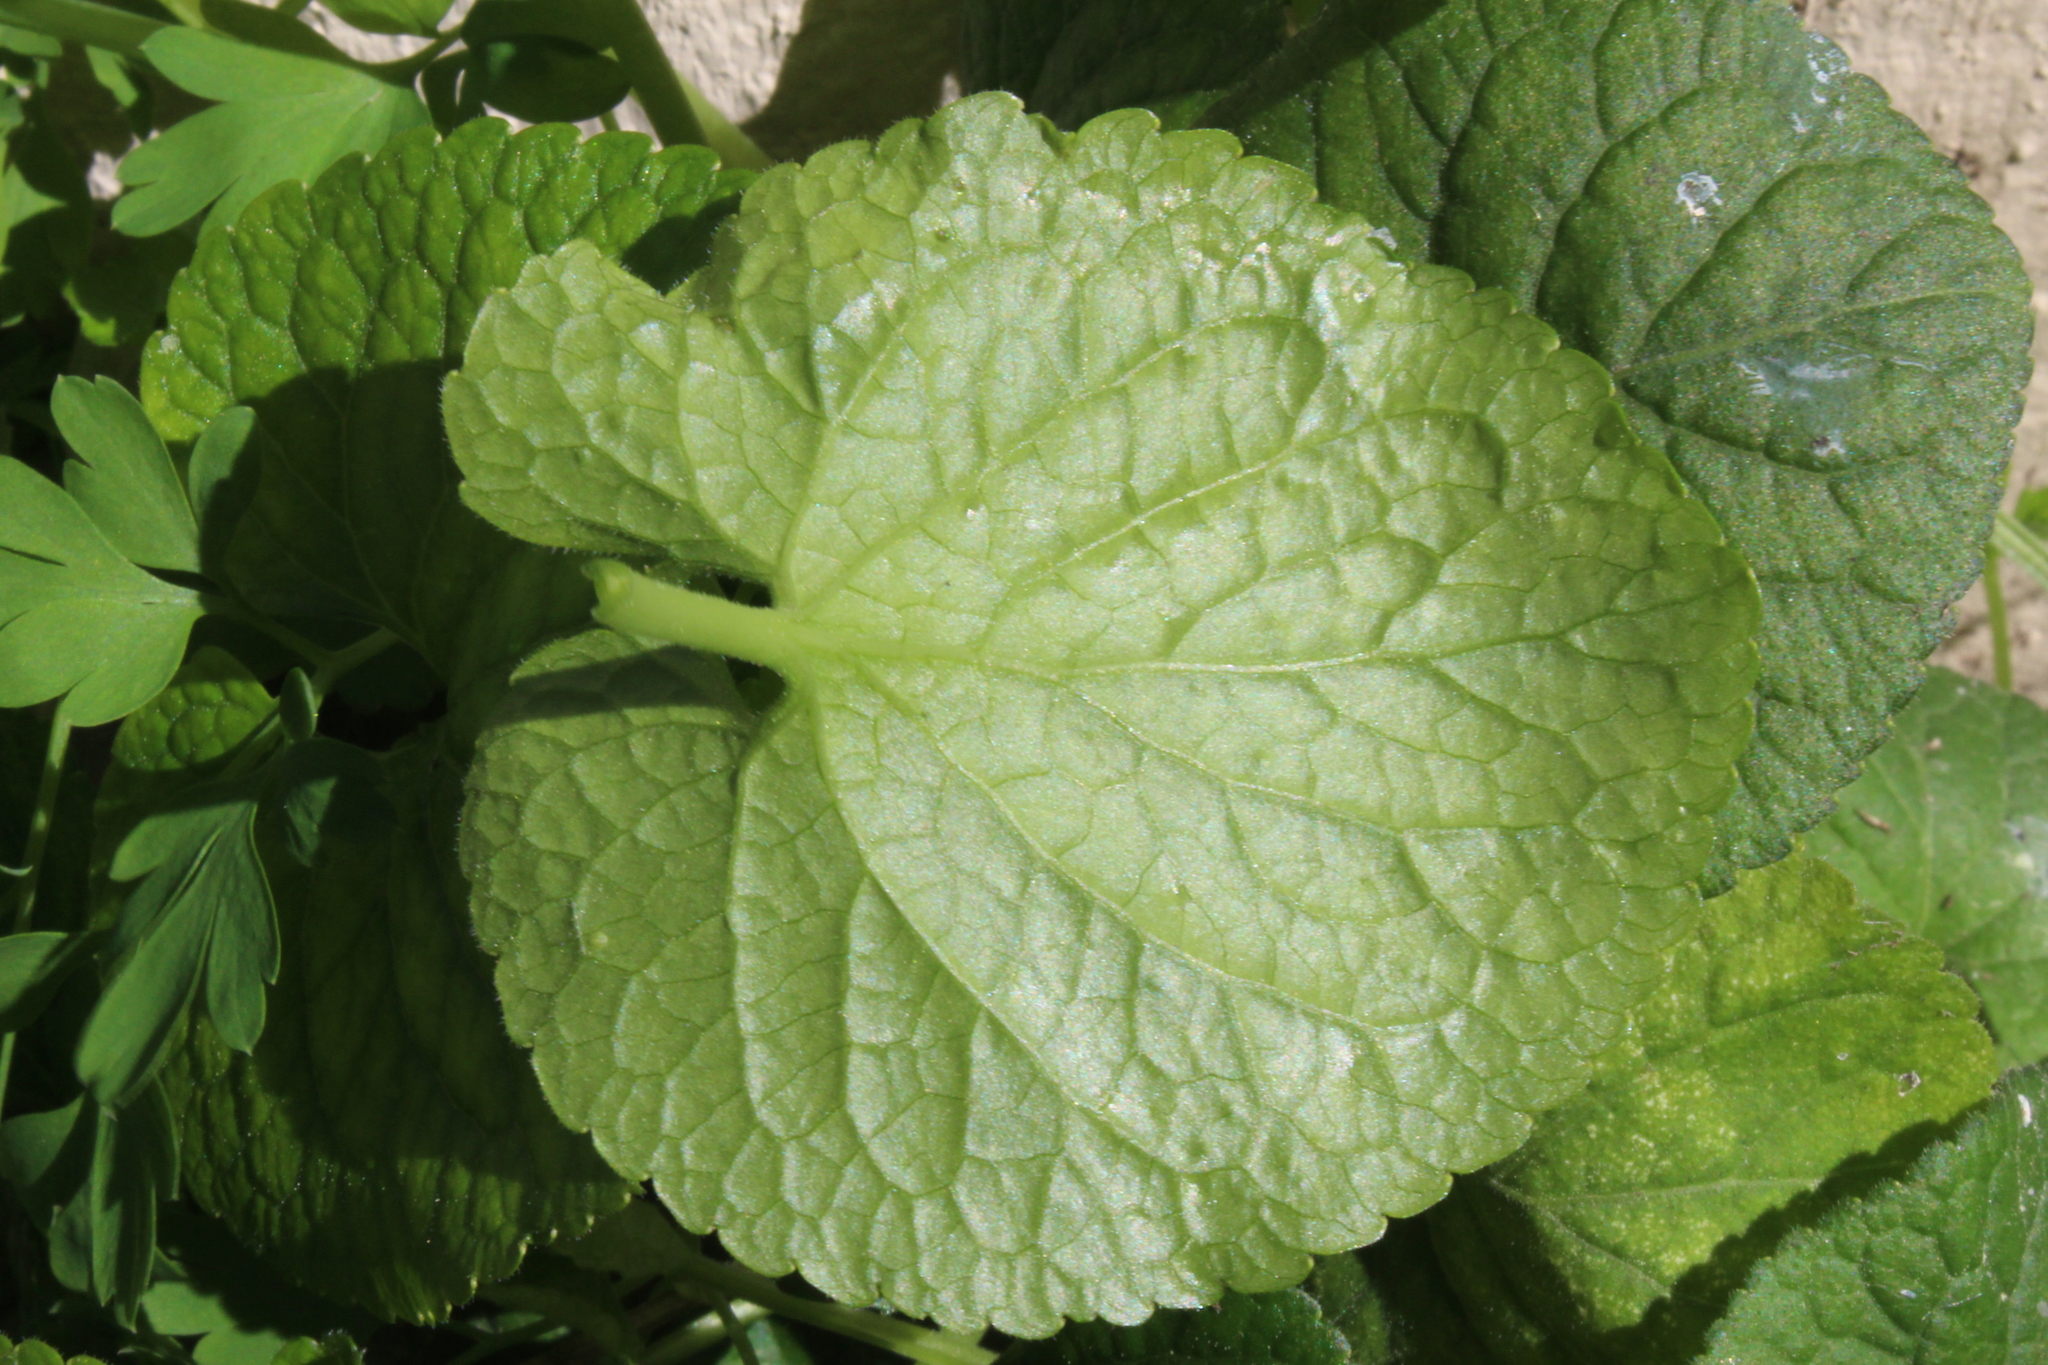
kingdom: Plantae
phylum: Tracheophyta
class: Magnoliopsida
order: Malpighiales
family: Violaceae
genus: Viola
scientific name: Viola odorata
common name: Sweet violet
